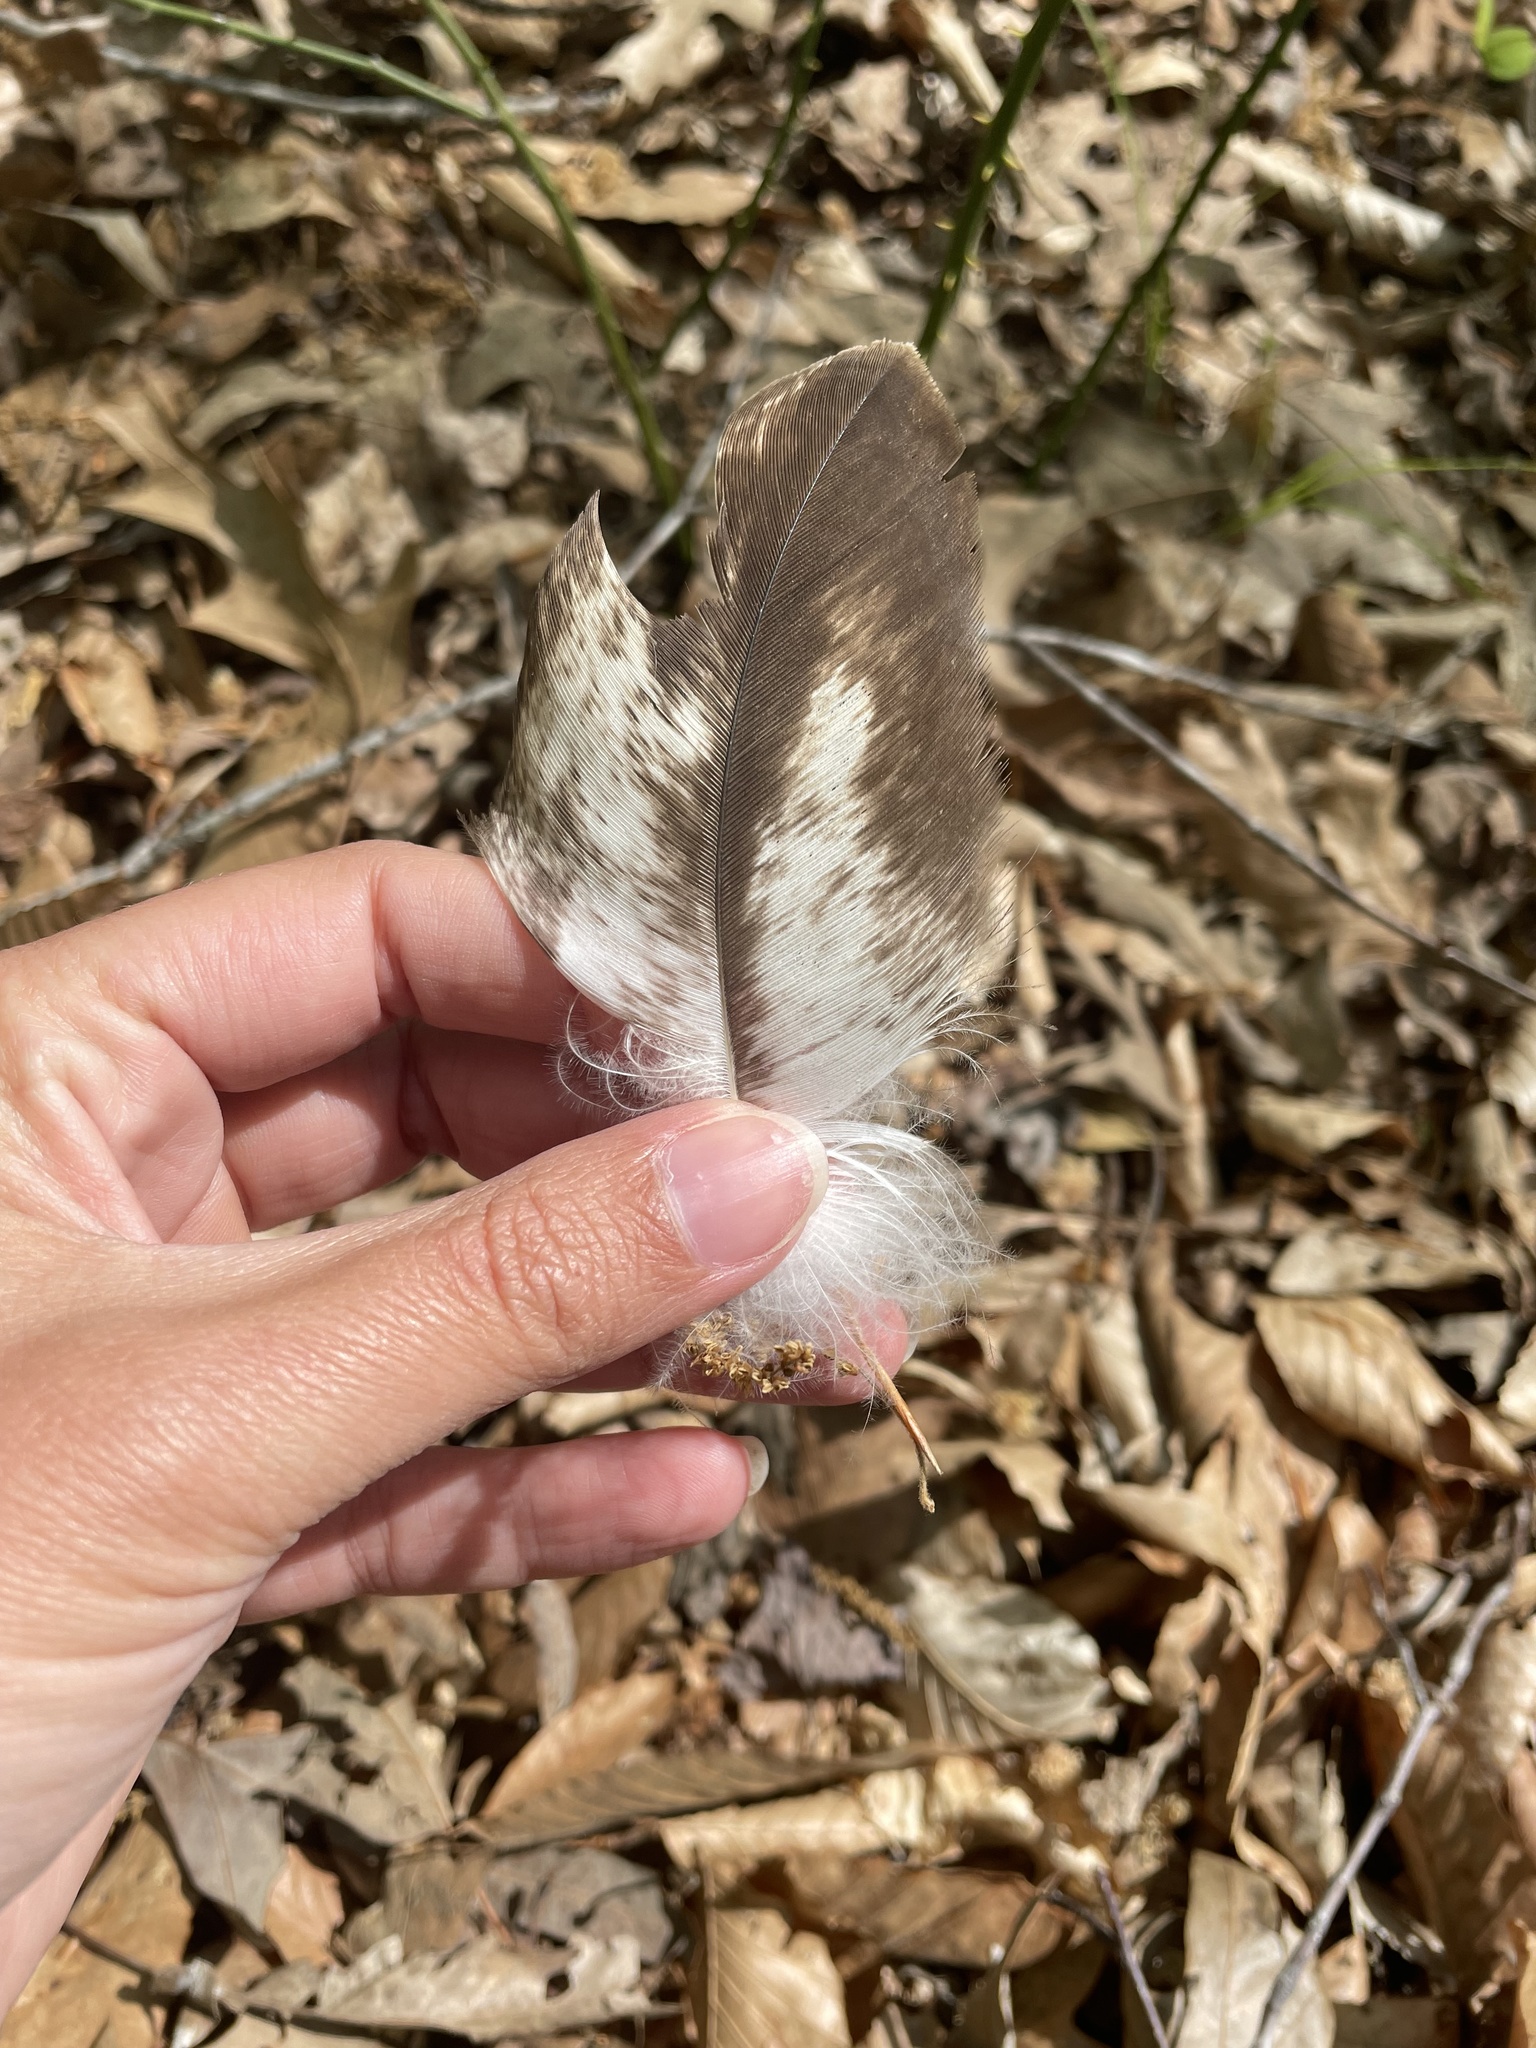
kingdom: Animalia
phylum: Chordata
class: Aves
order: Accipitriformes
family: Accipitridae
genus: Haliaeetus
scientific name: Haliaeetus leucocephalus
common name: Bald eagle
